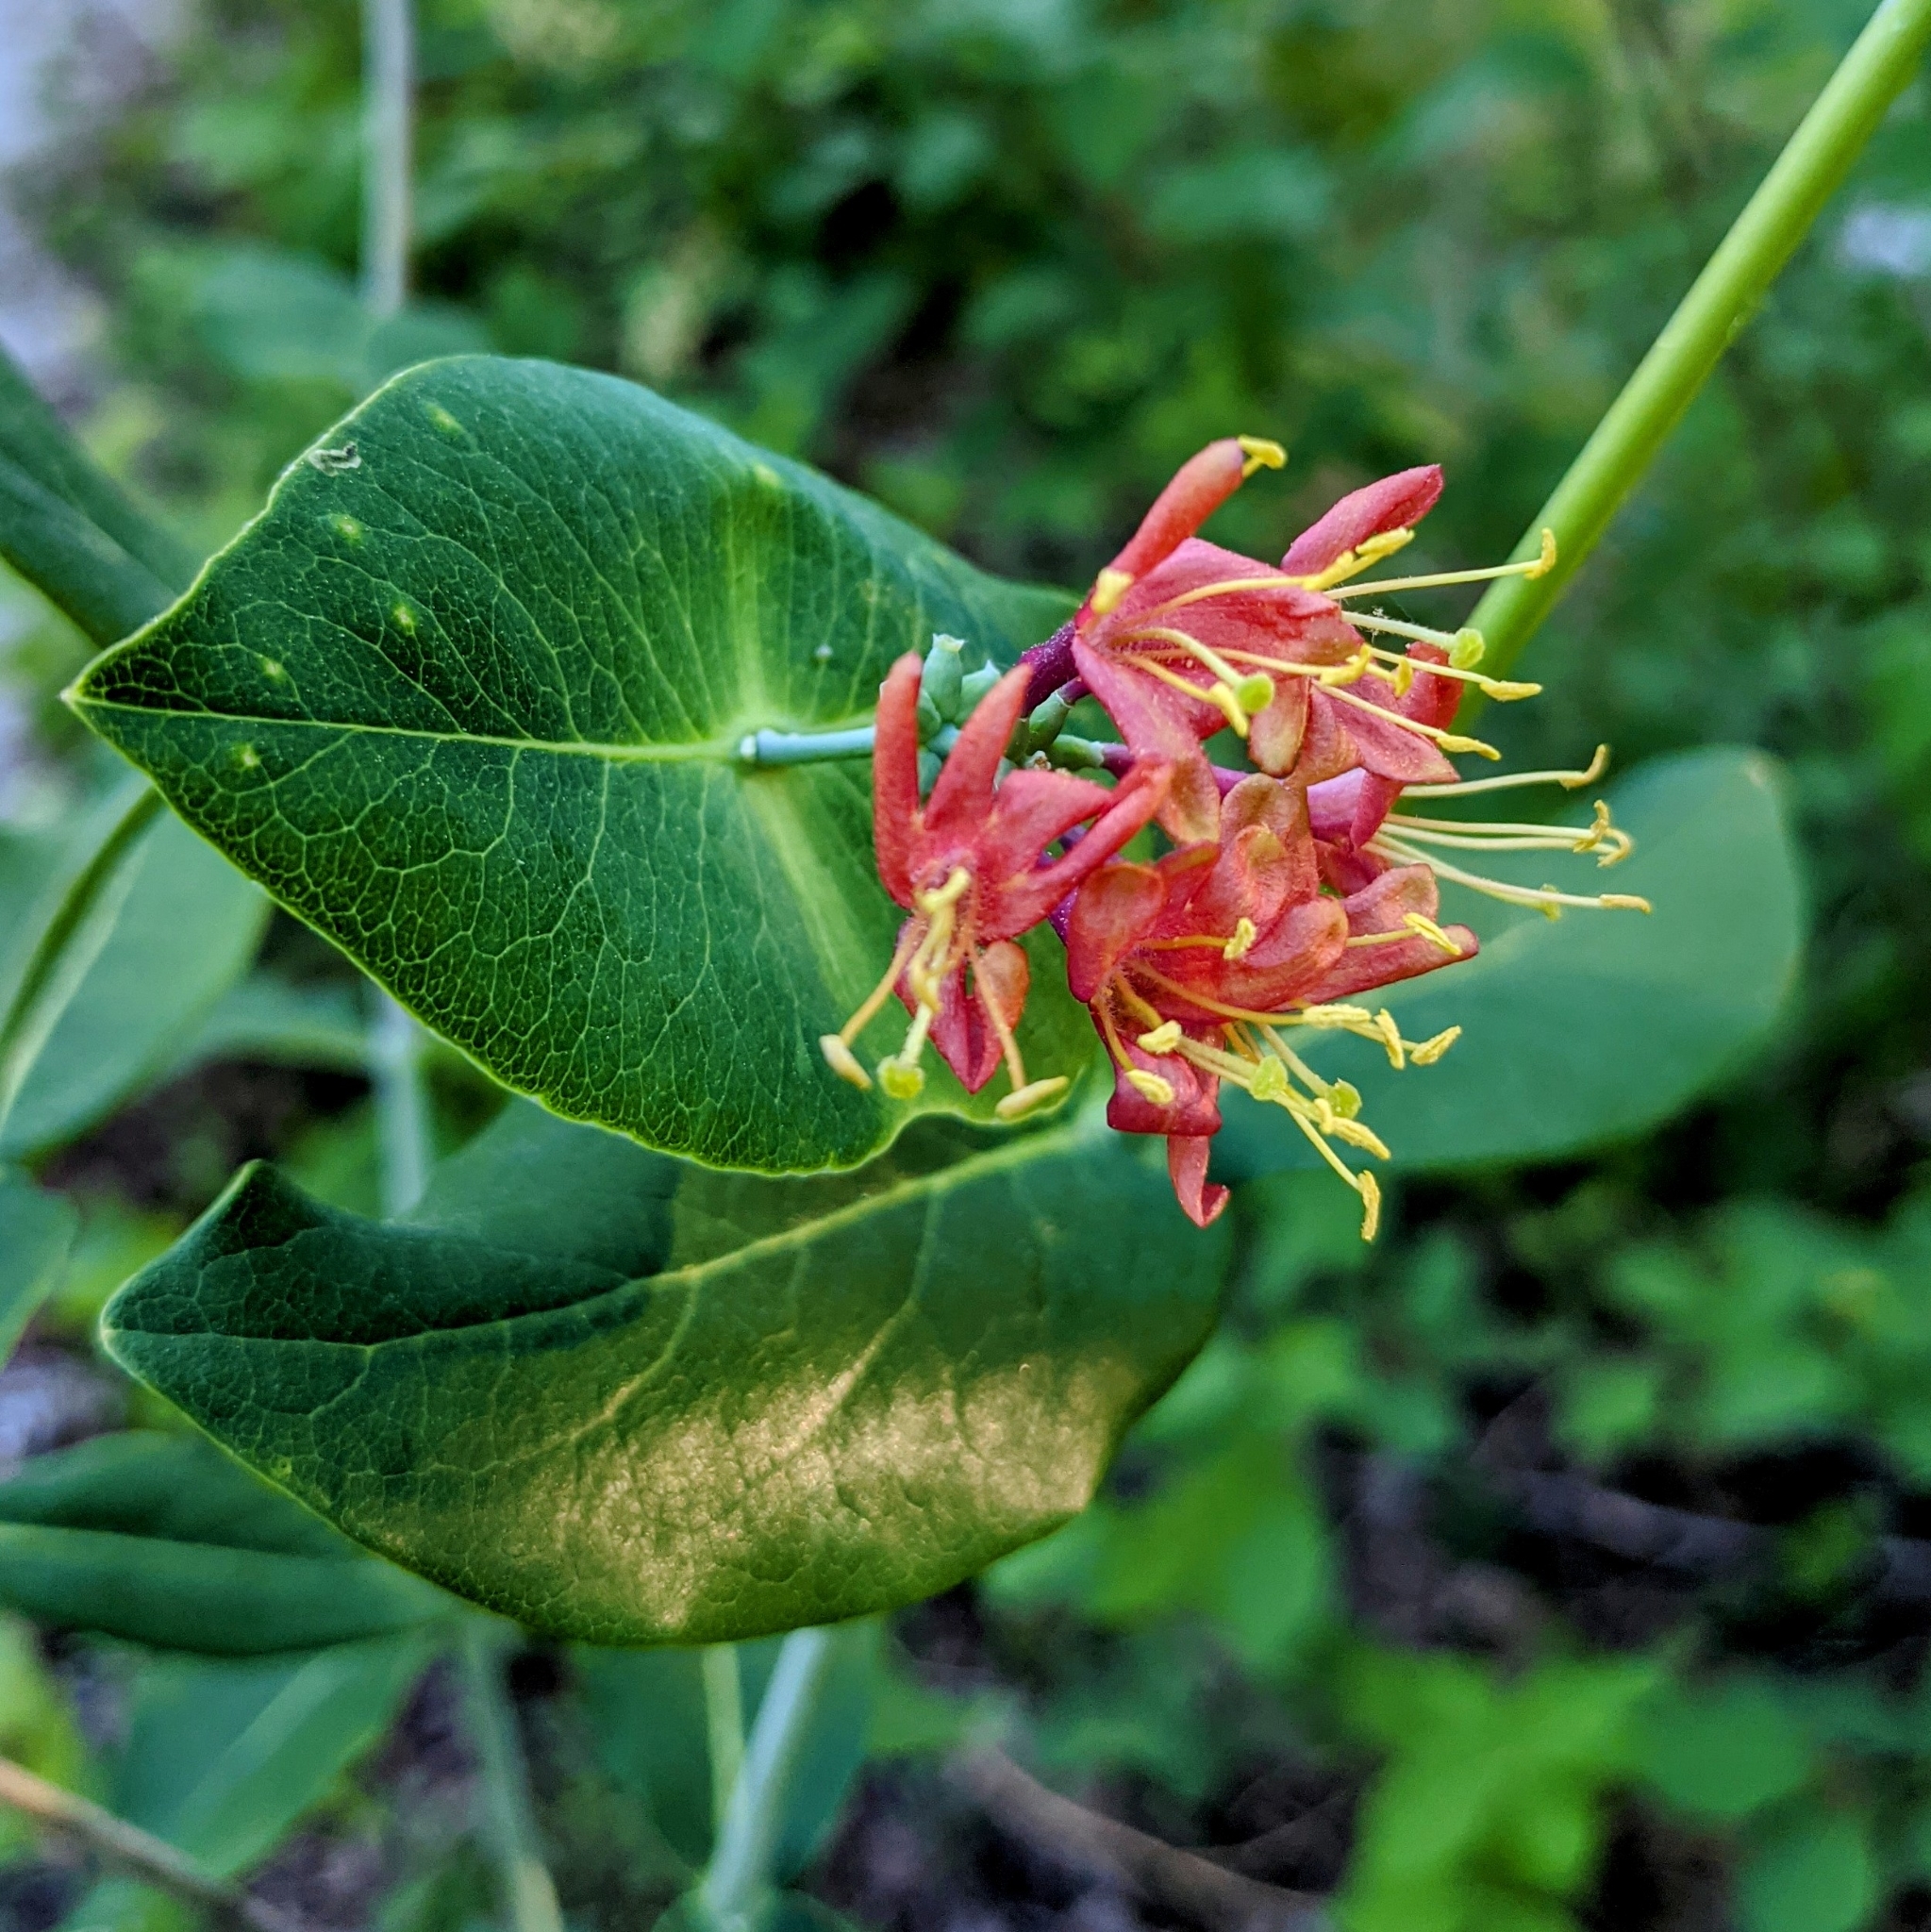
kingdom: Plantae
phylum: Tracheophyta
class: Magnoliopsida
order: Dipsacales
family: Caprifoliaceae
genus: Lonicera
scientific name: Lonicera dioica
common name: Limber honeysuckle
